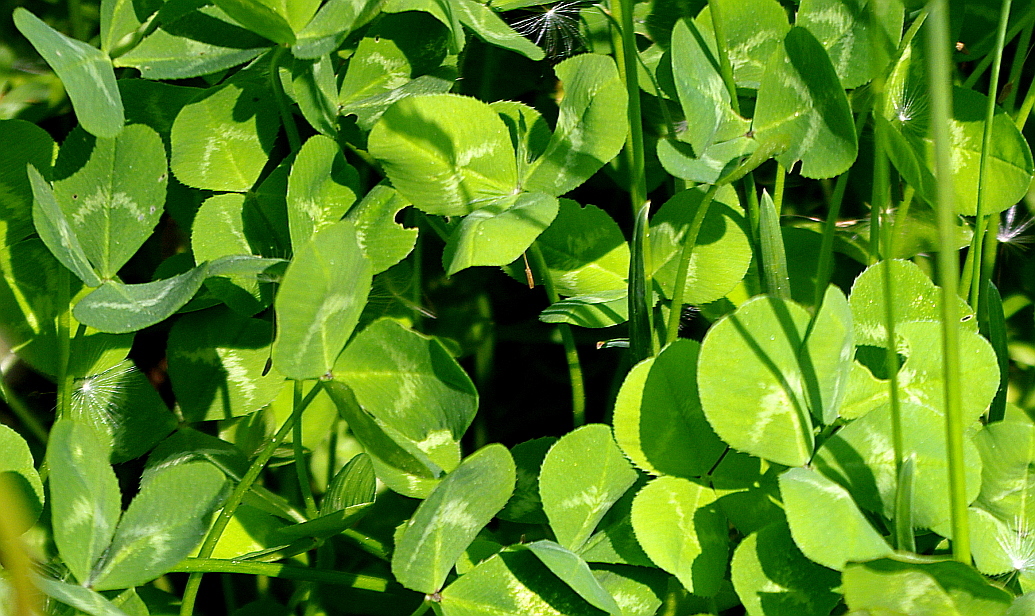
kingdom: Plantae
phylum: Tracheophyta
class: Magnoliopsida
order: Fabales
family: Fabaceae
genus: Trifolium
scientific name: Trifolium repens
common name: White clover
